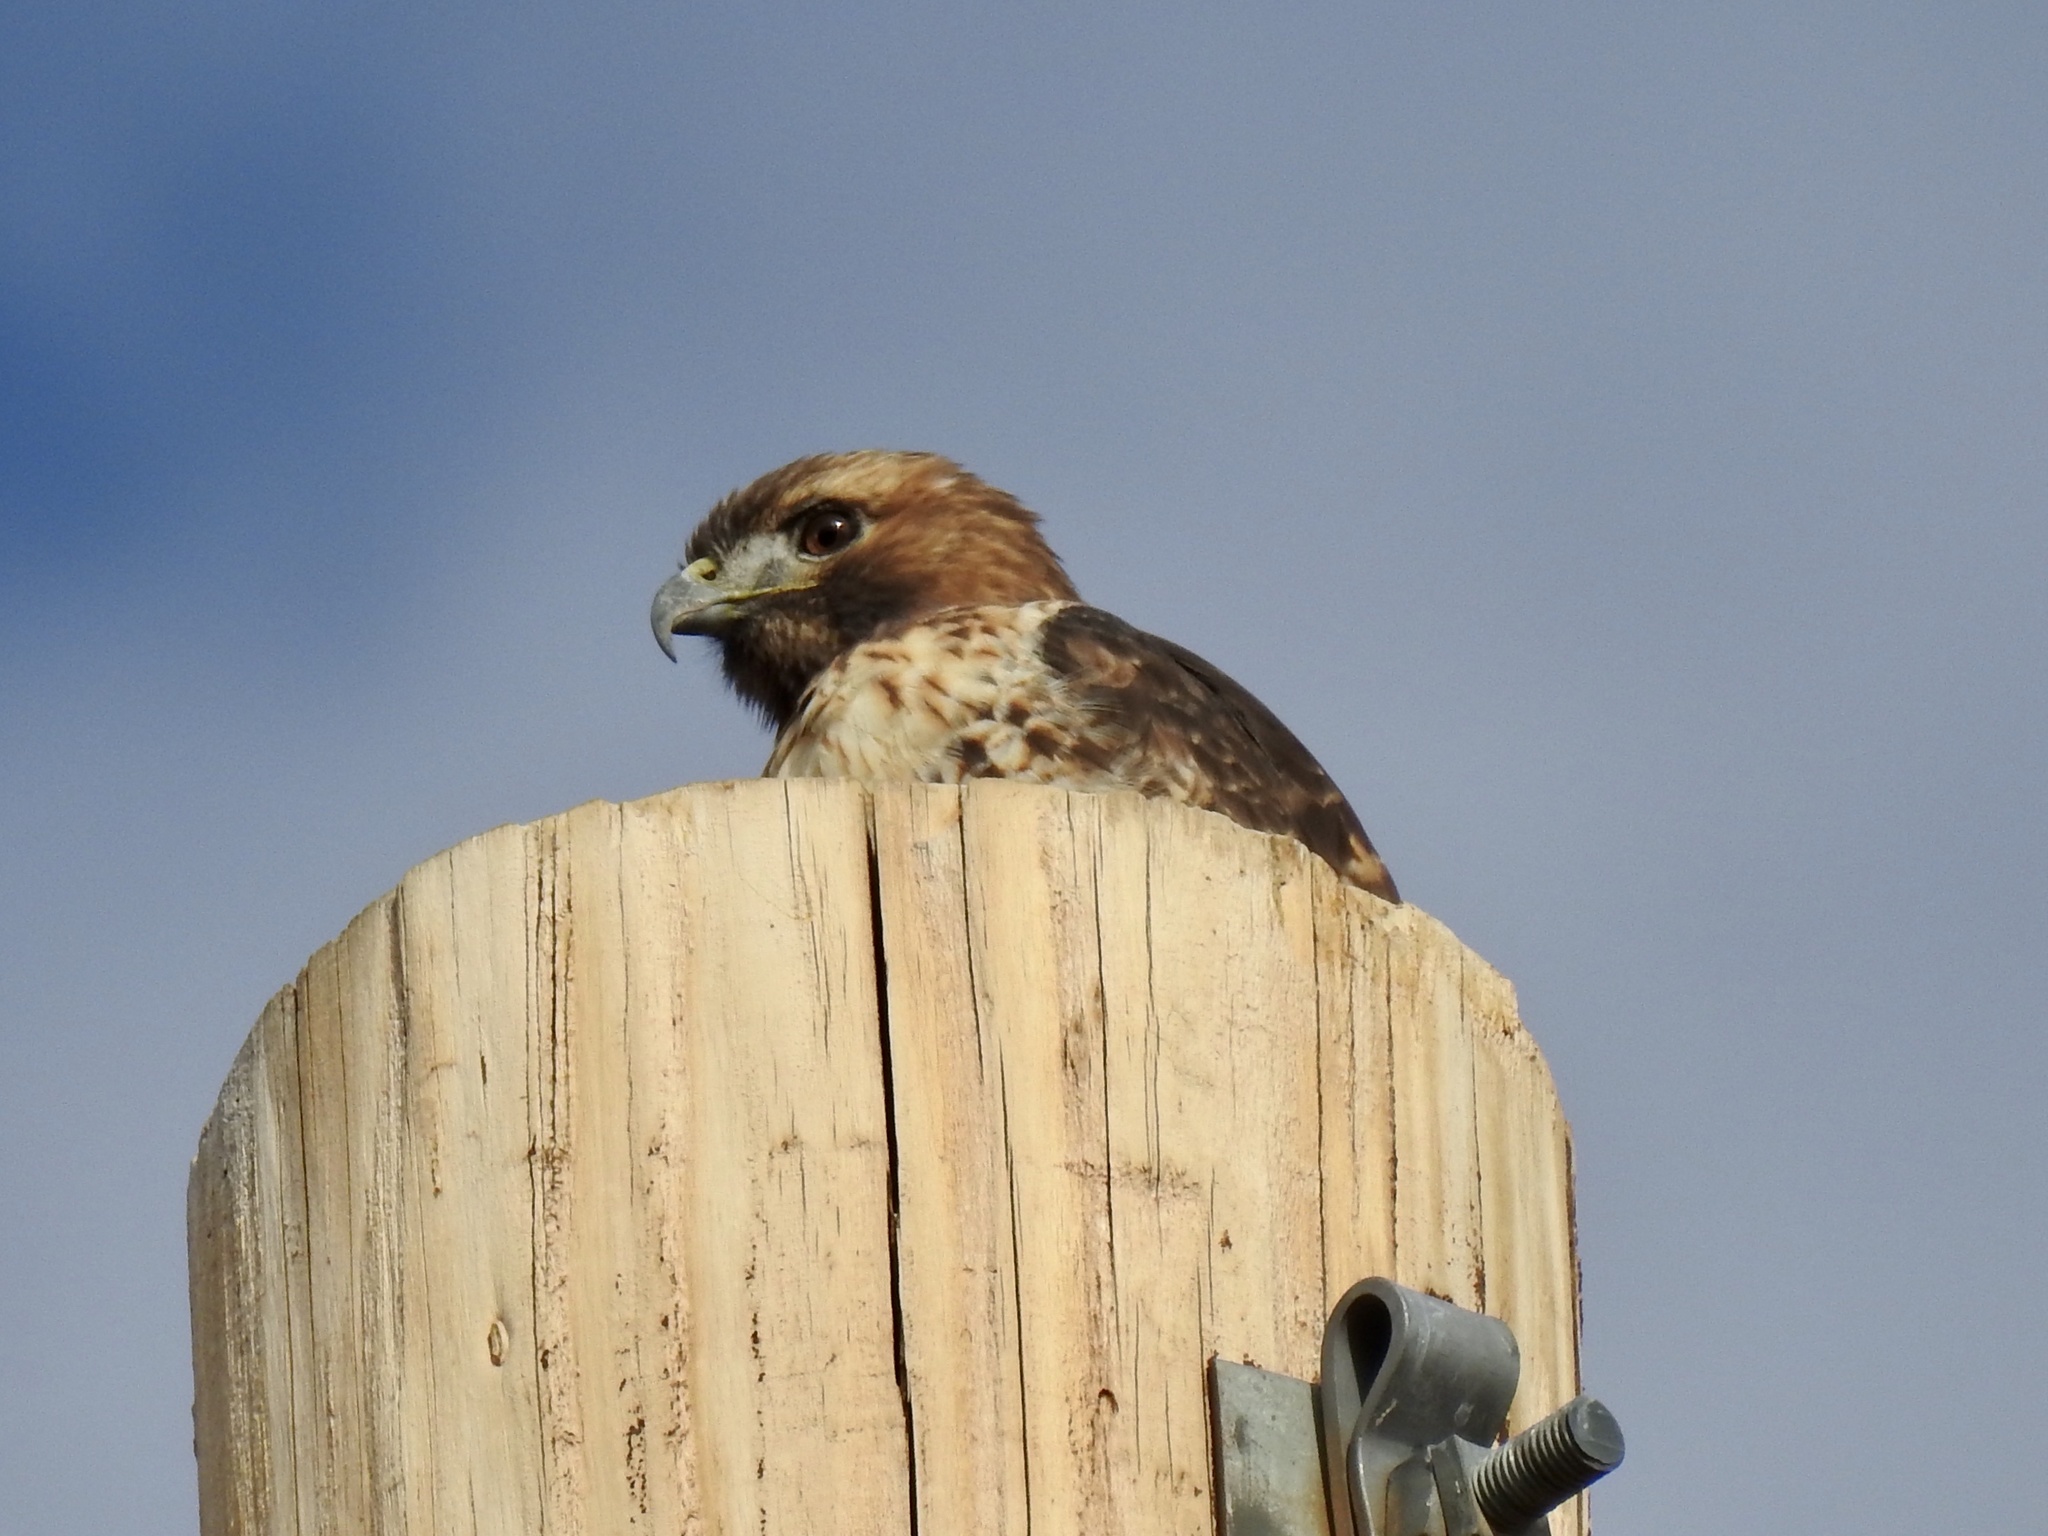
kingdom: Animalia
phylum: Chordata
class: Aves
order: Accipitriformes
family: Accipitridae
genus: Buteo
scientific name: Buteo jamaicensis
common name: Red-tailed hawk
